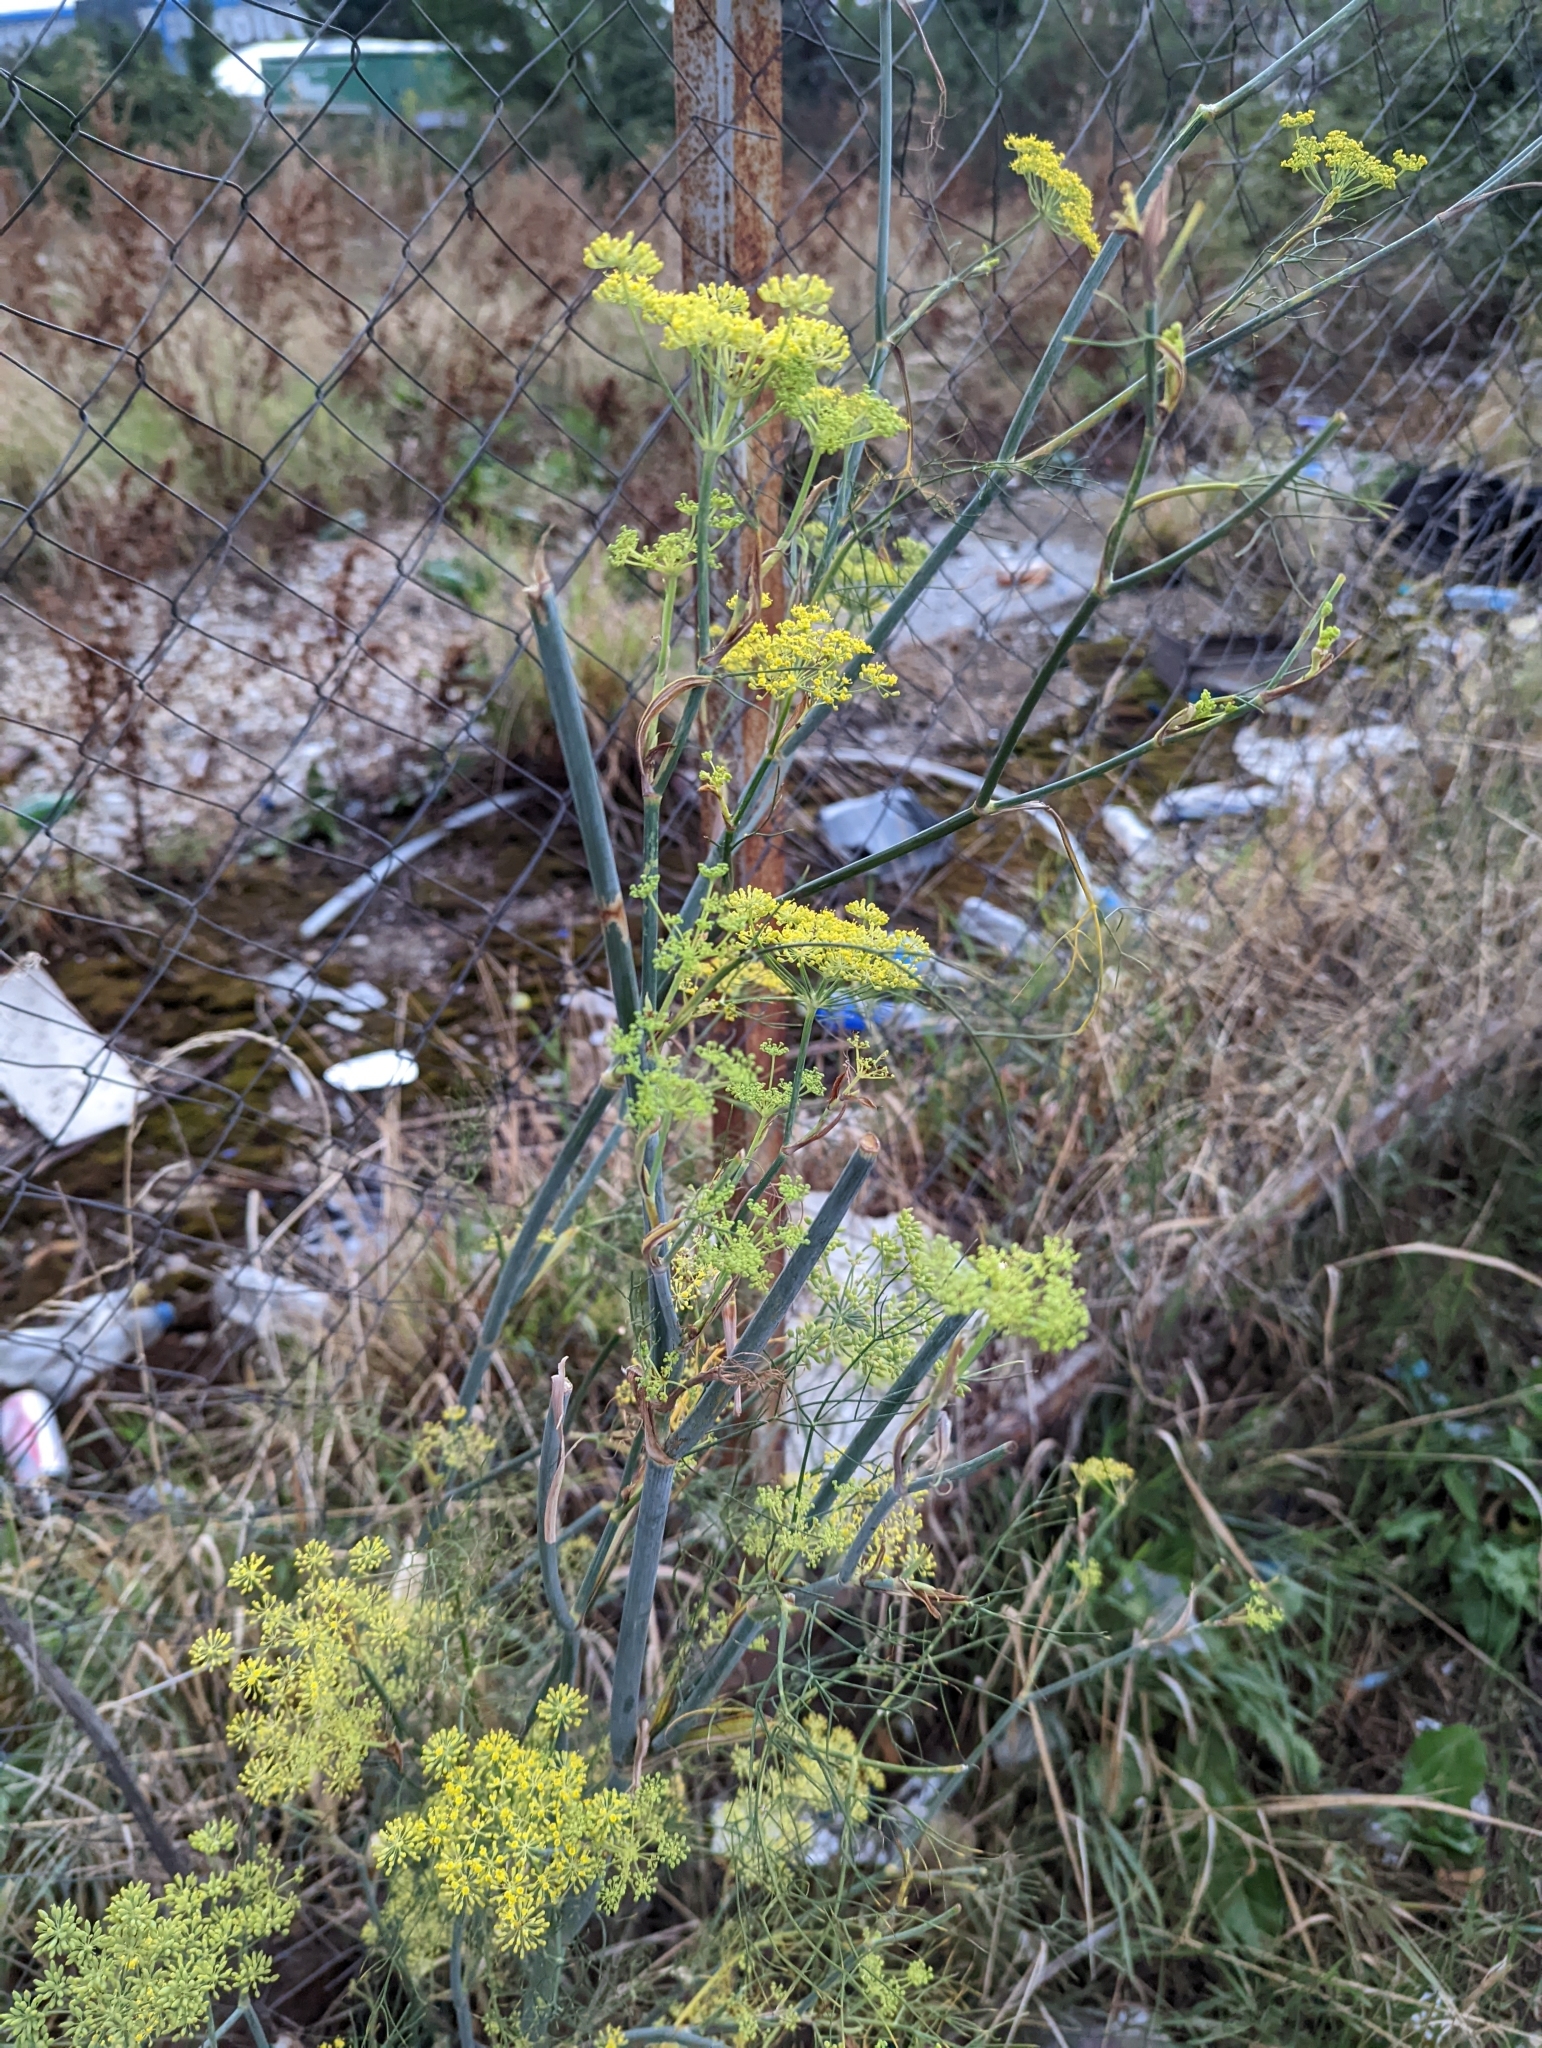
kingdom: Plantae
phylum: Tracheophyta
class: Magnoliopsida
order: Apiales
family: Apiaceae
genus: Foeniculum
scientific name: Foeniculum vulgare
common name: Fennel
